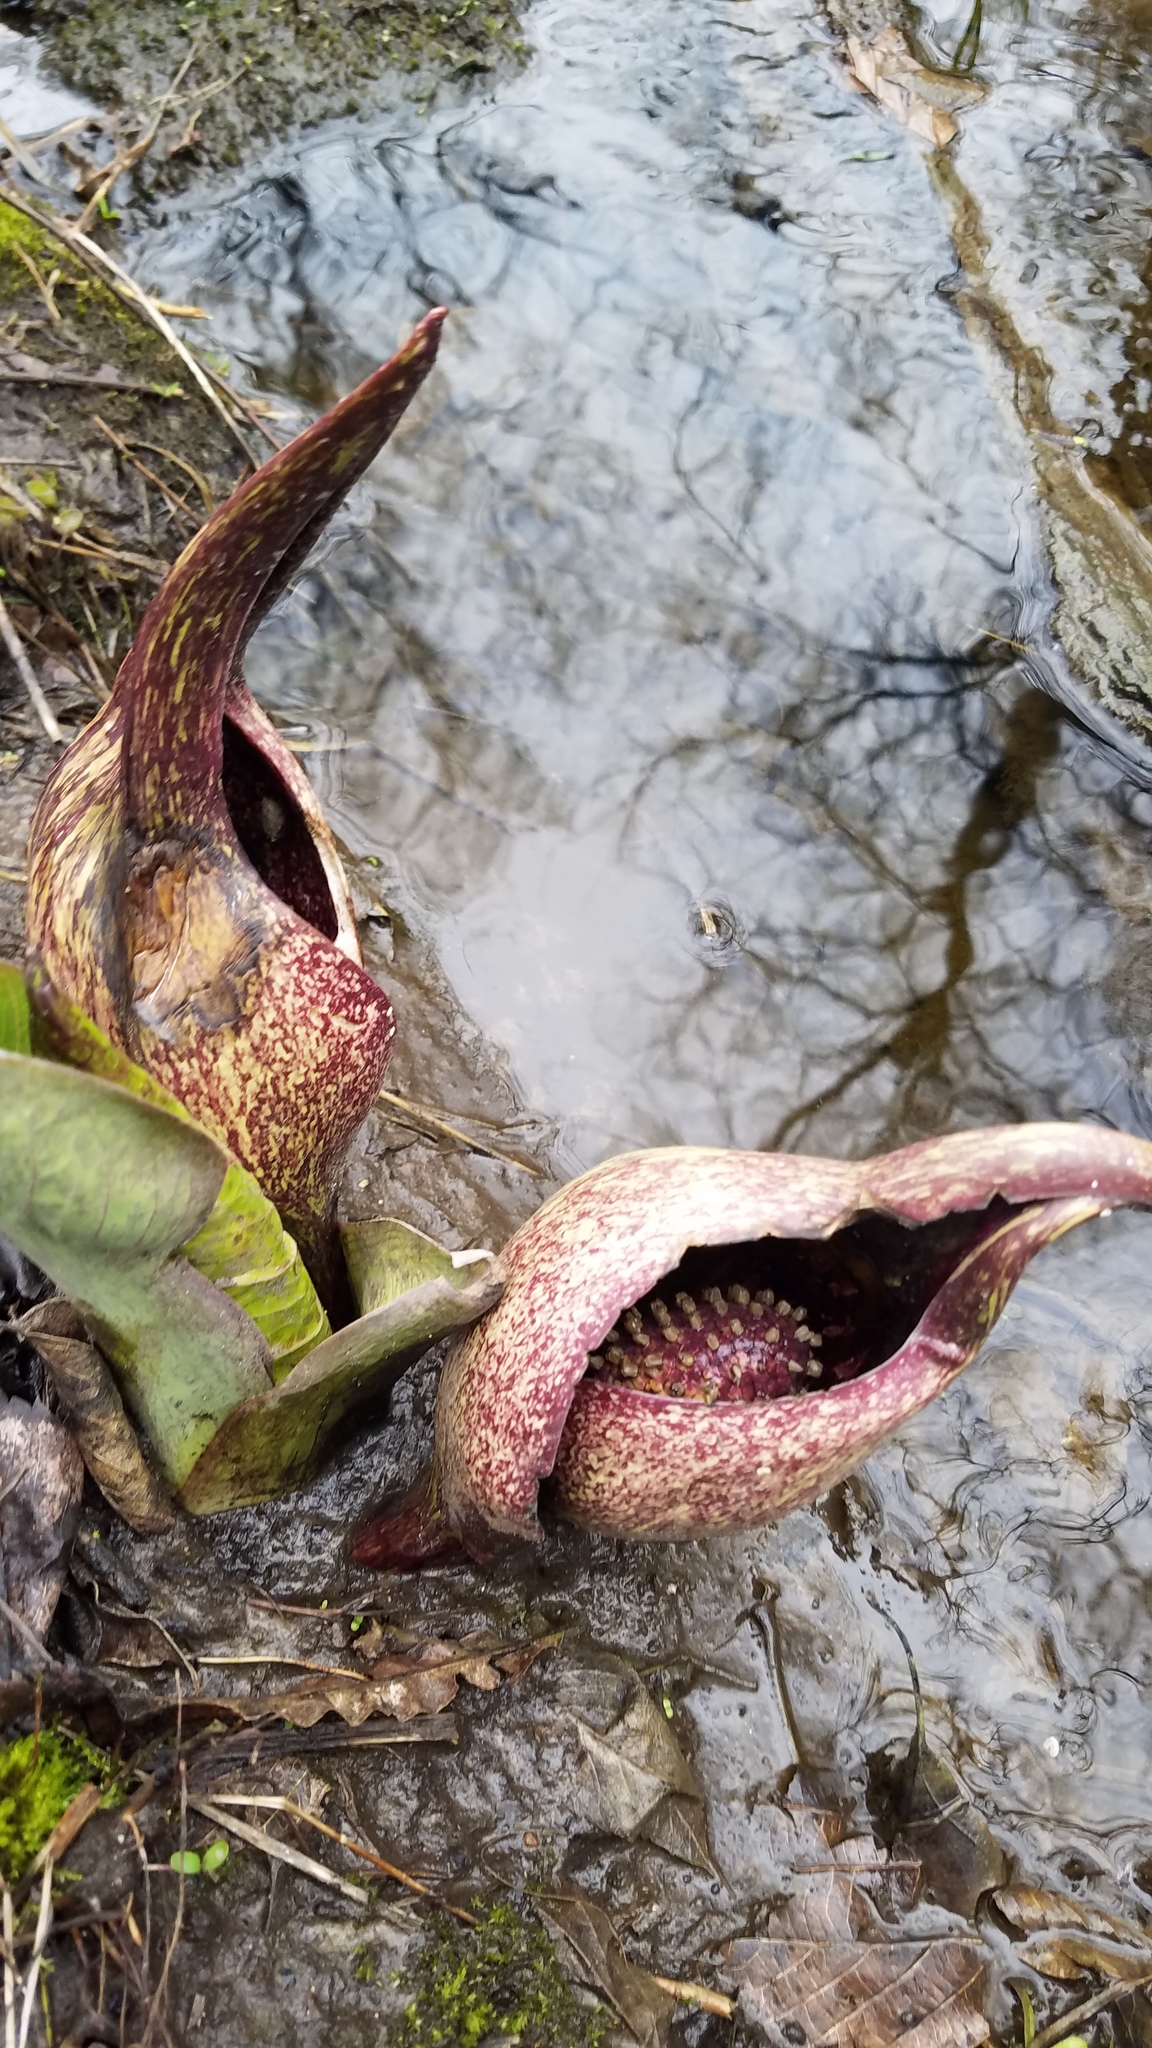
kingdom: Plantae
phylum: Tracheophyta
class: Liliopsida
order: Alismatales
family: Araceae
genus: Symplocarpus
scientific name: Symplocarpus foetidus
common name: Eastern skunk cabbage
